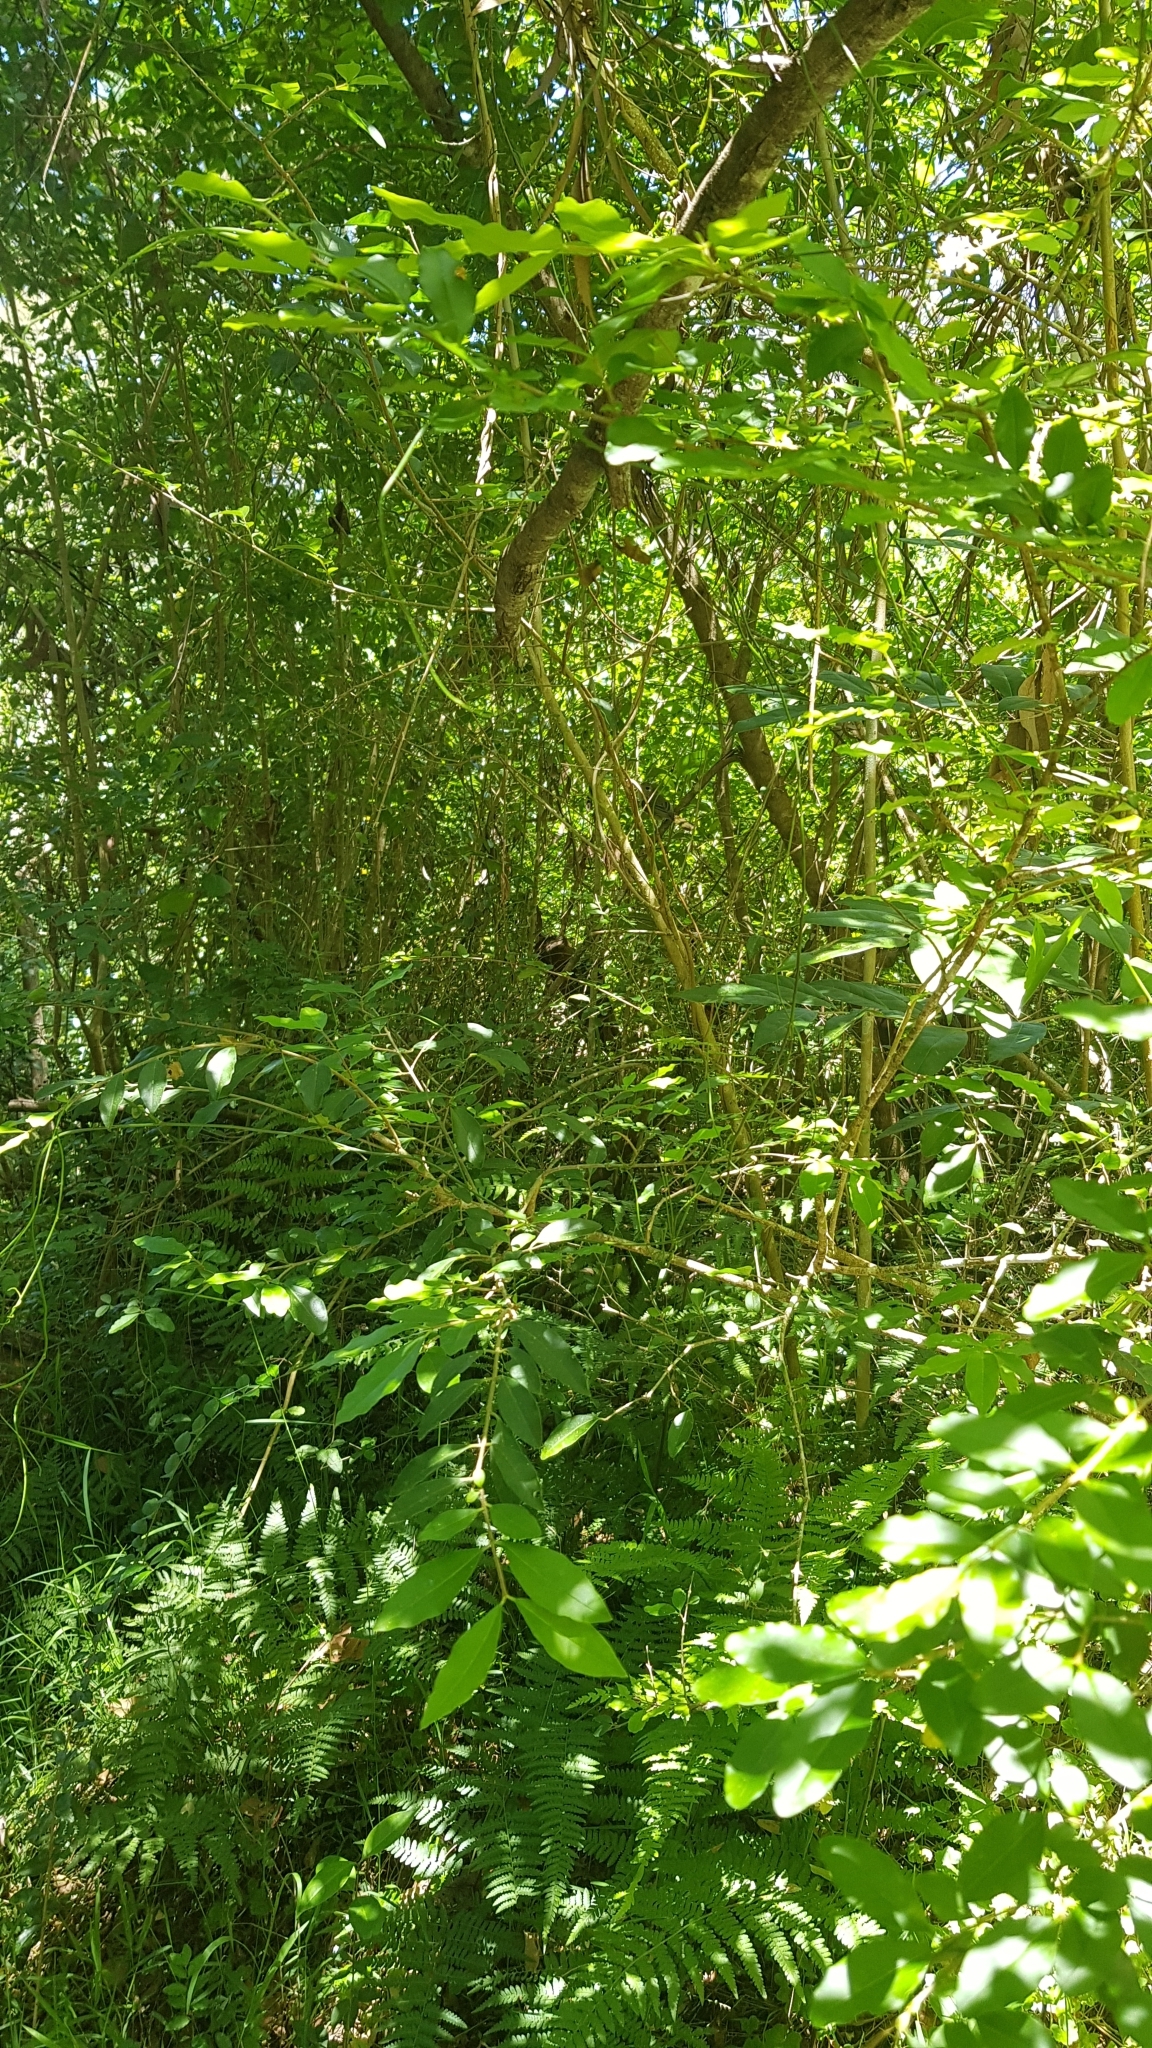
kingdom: Animalia
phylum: Chordata
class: Aves
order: Passeriformes
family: Pachycephalidae
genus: Pachycephala
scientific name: Pachycephala pectoralis
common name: Australian golden whistler
